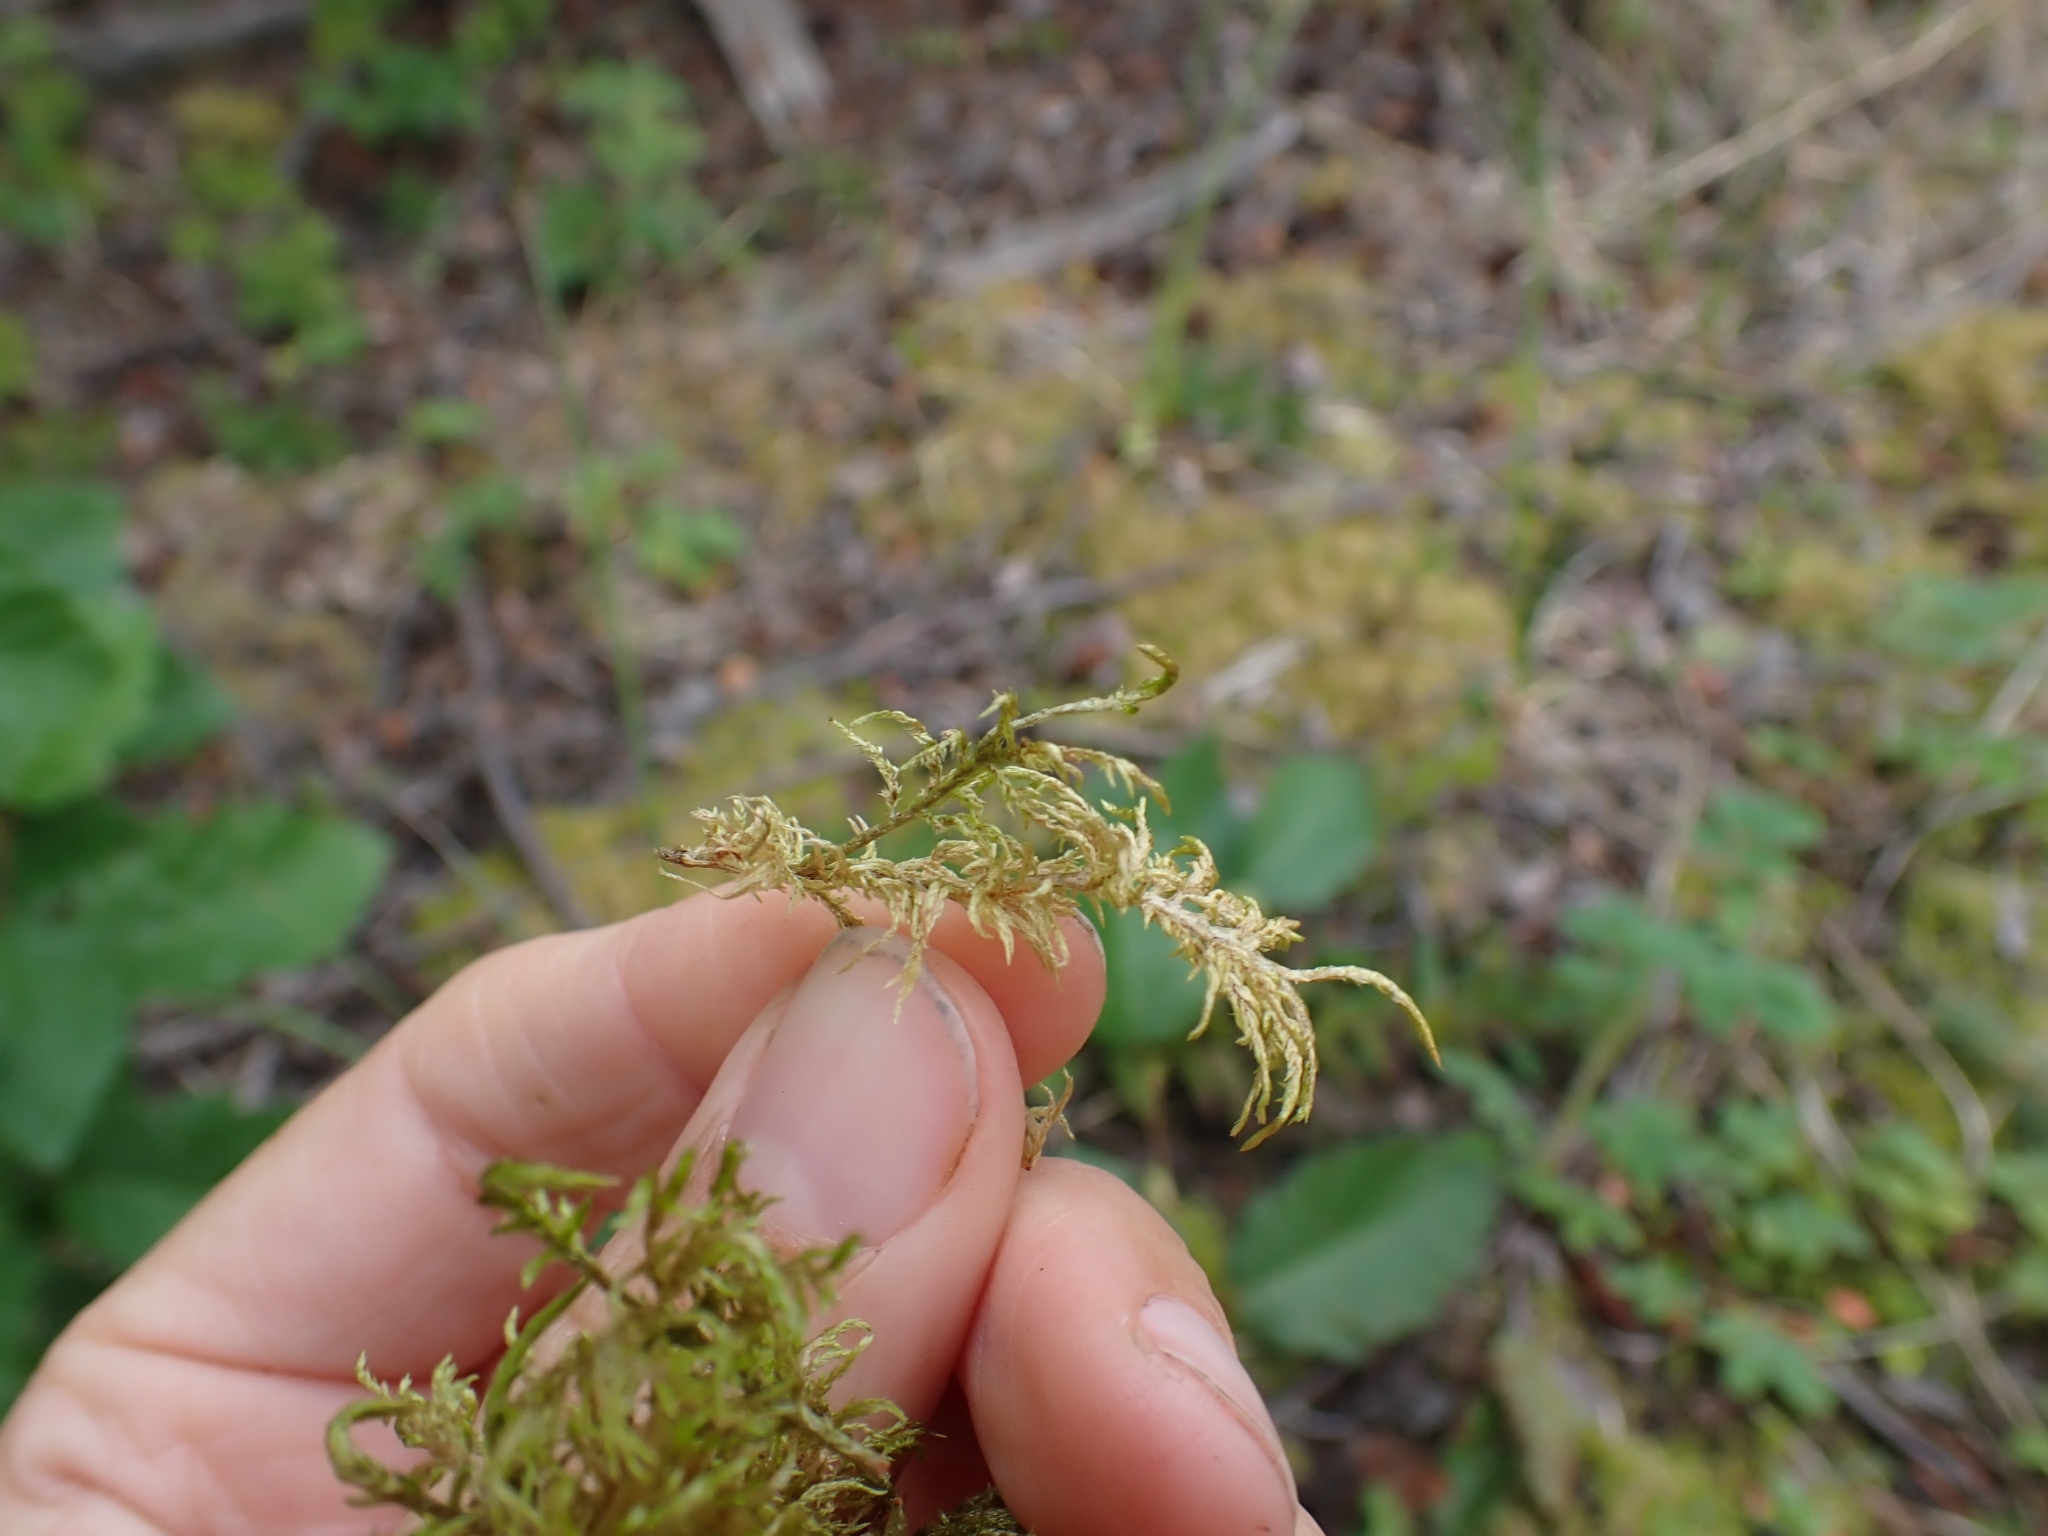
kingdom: Plantae
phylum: Bryophyta
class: Bryopsida
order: Hypnales
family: Hylocomiaceae
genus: Hylocomium
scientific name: Hylocomium splendens
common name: Stairstep moss
